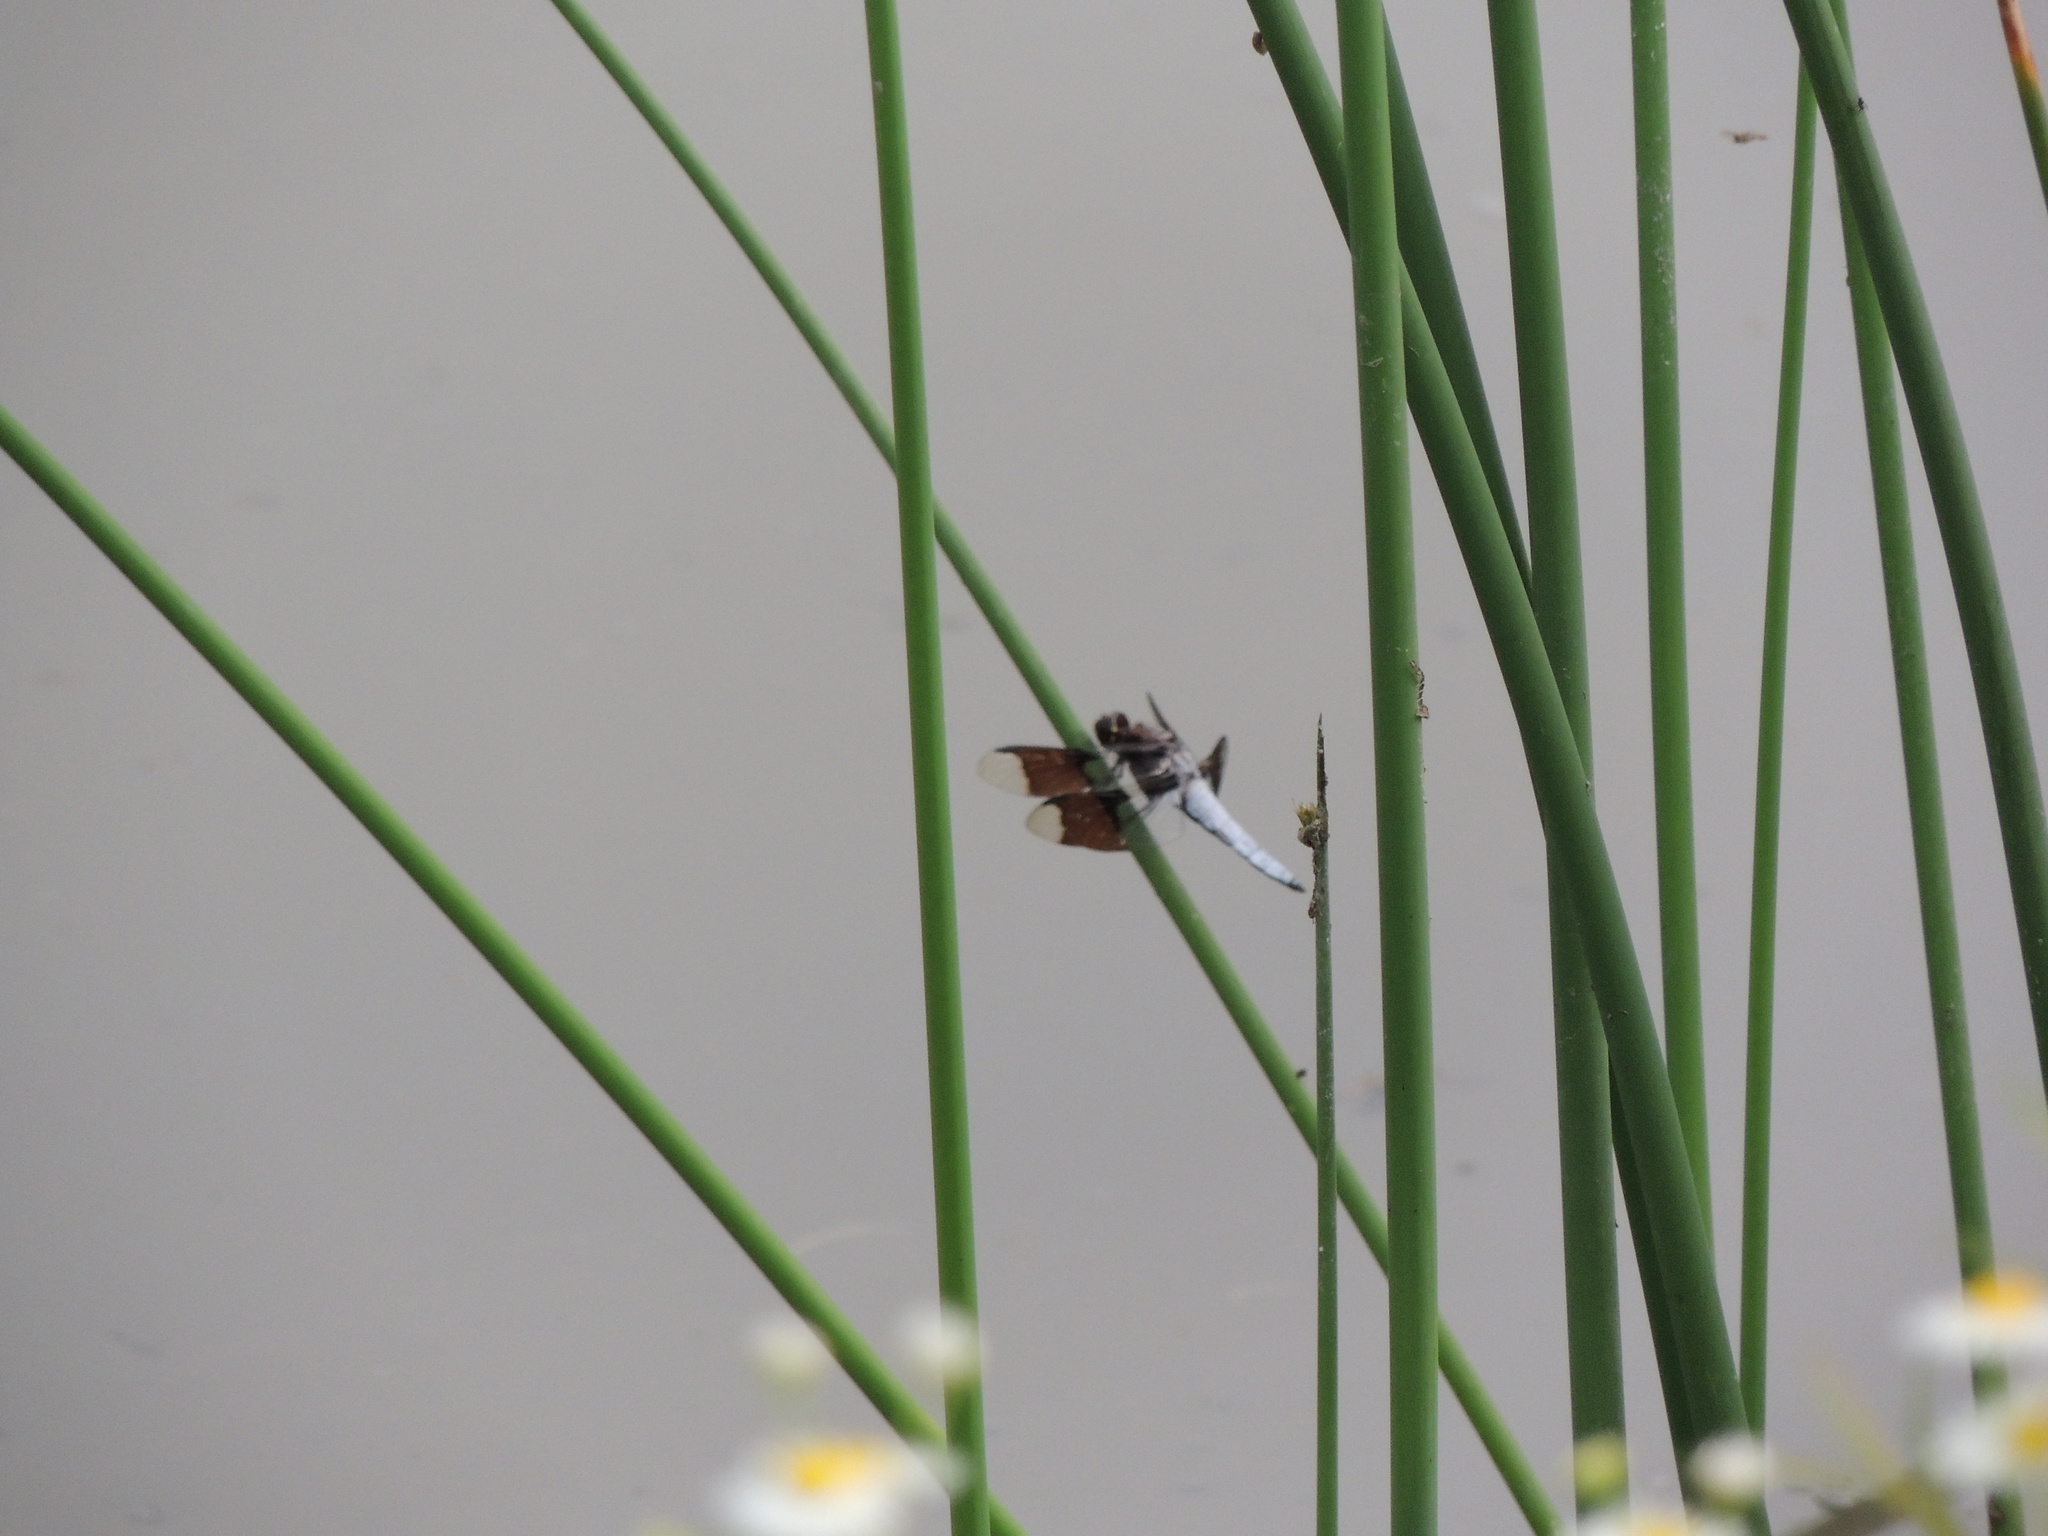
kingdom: Animalia
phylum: Arthropoda
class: Insecta
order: Odonata
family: Libellulidae
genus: Plathemis
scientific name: Plathemis lydia
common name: Common whitetail
